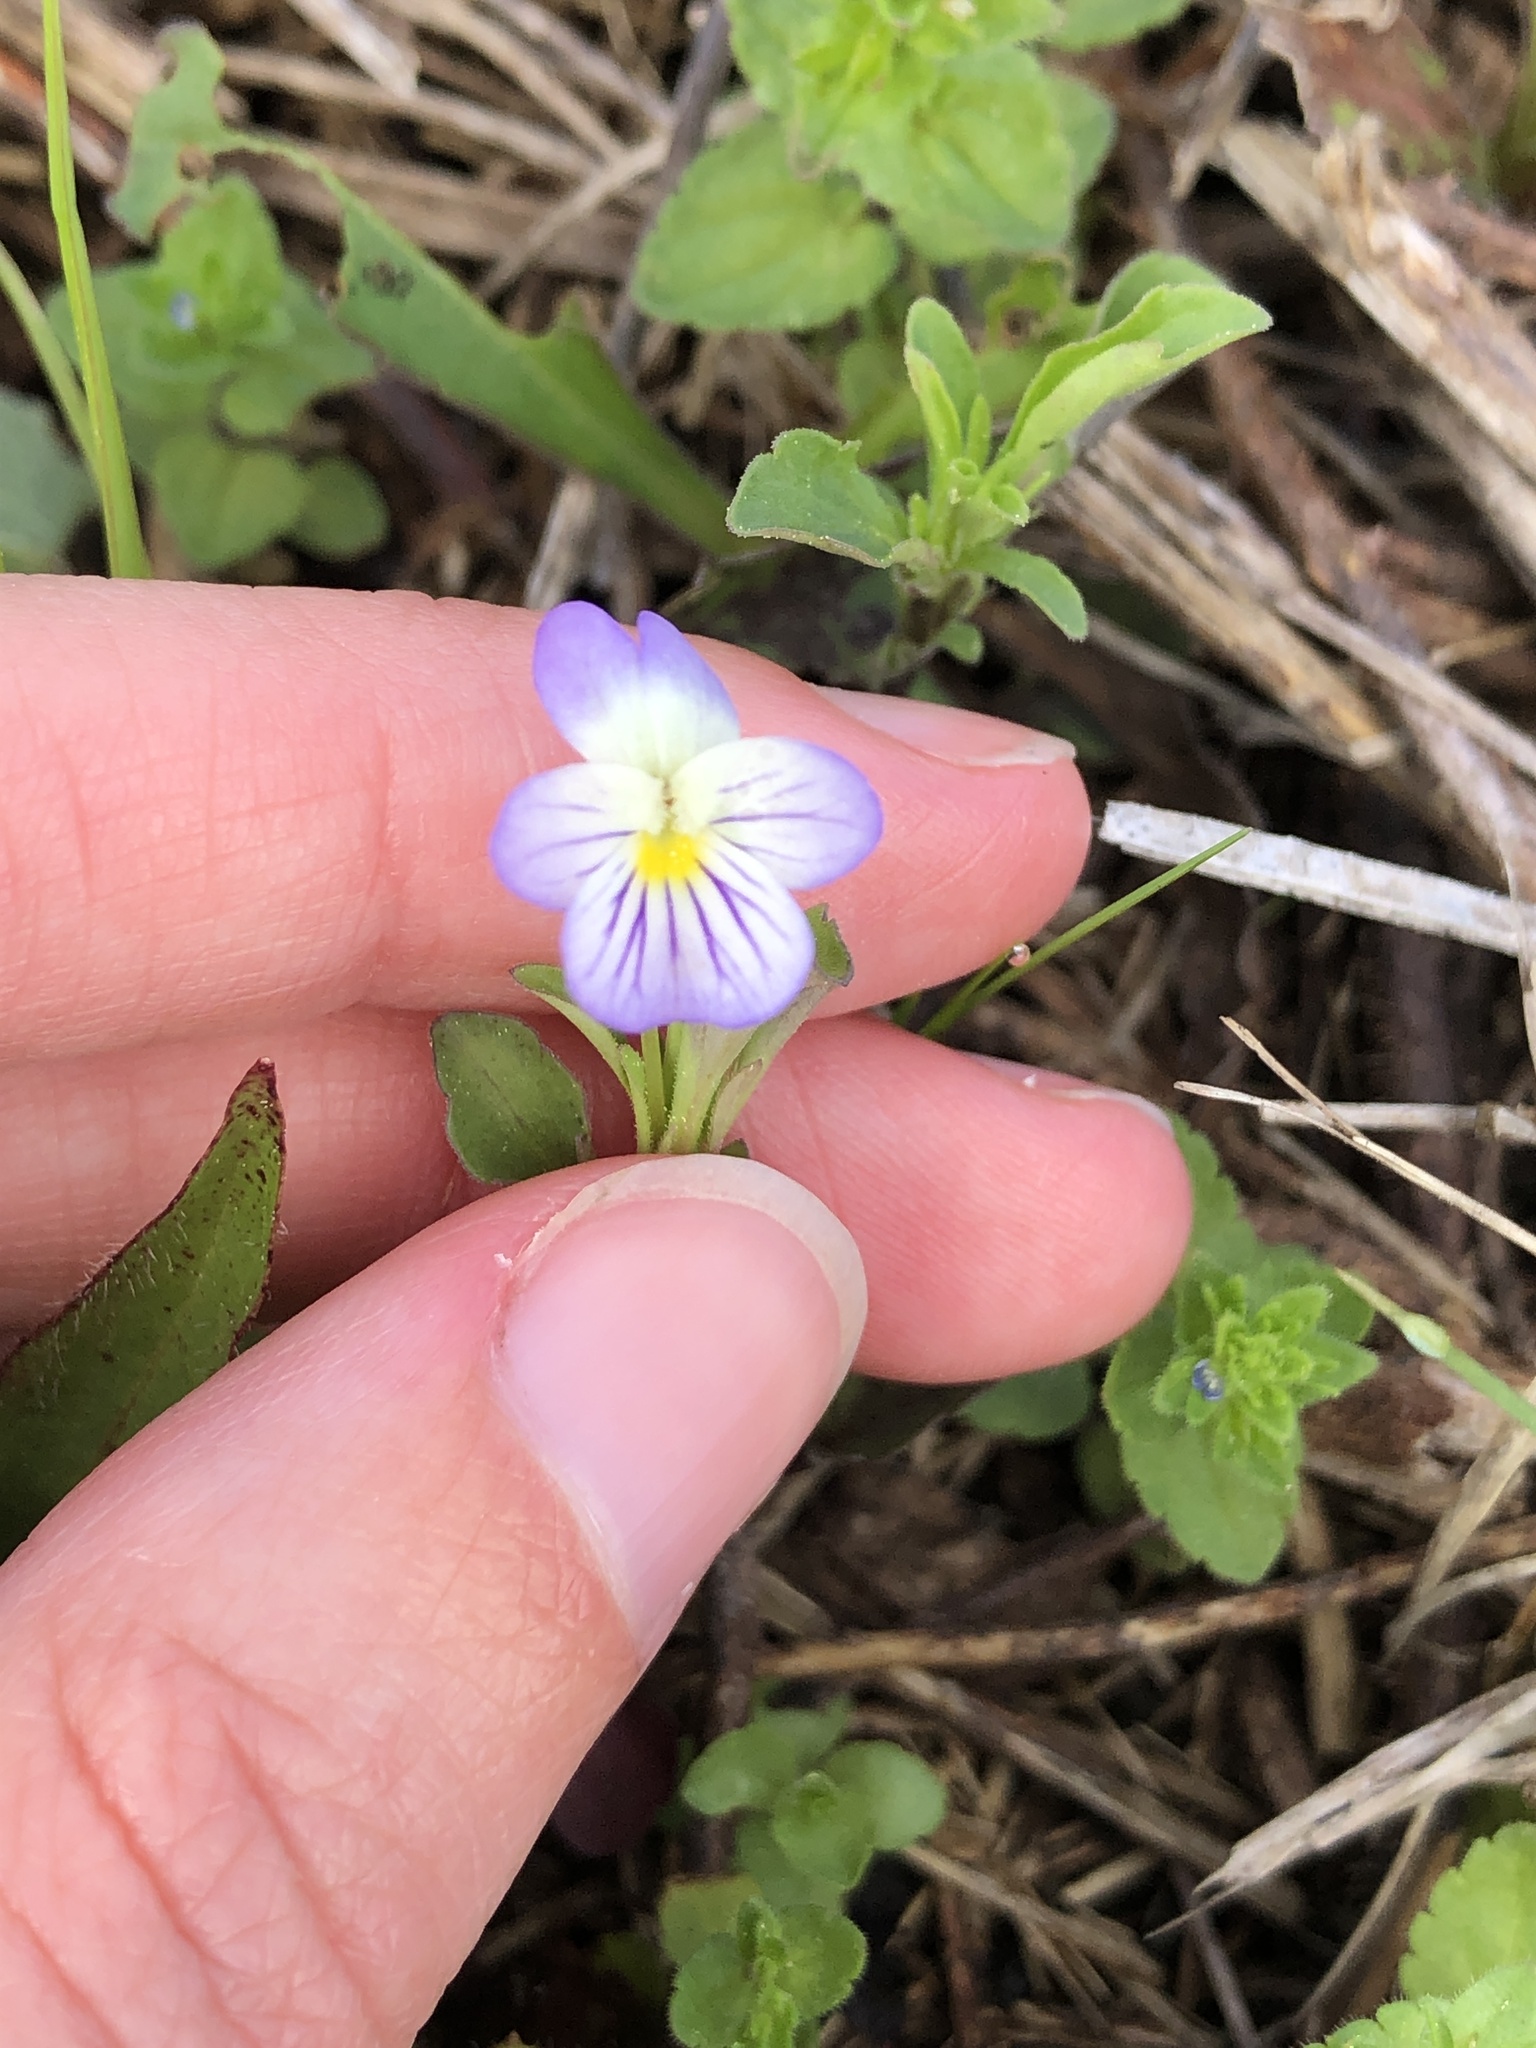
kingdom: Plantae
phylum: Tracheophyta
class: Magnoliopsida
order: Malpighiales
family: Violaceae
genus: Viola
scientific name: Viola rafinesquei
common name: American field pansy
